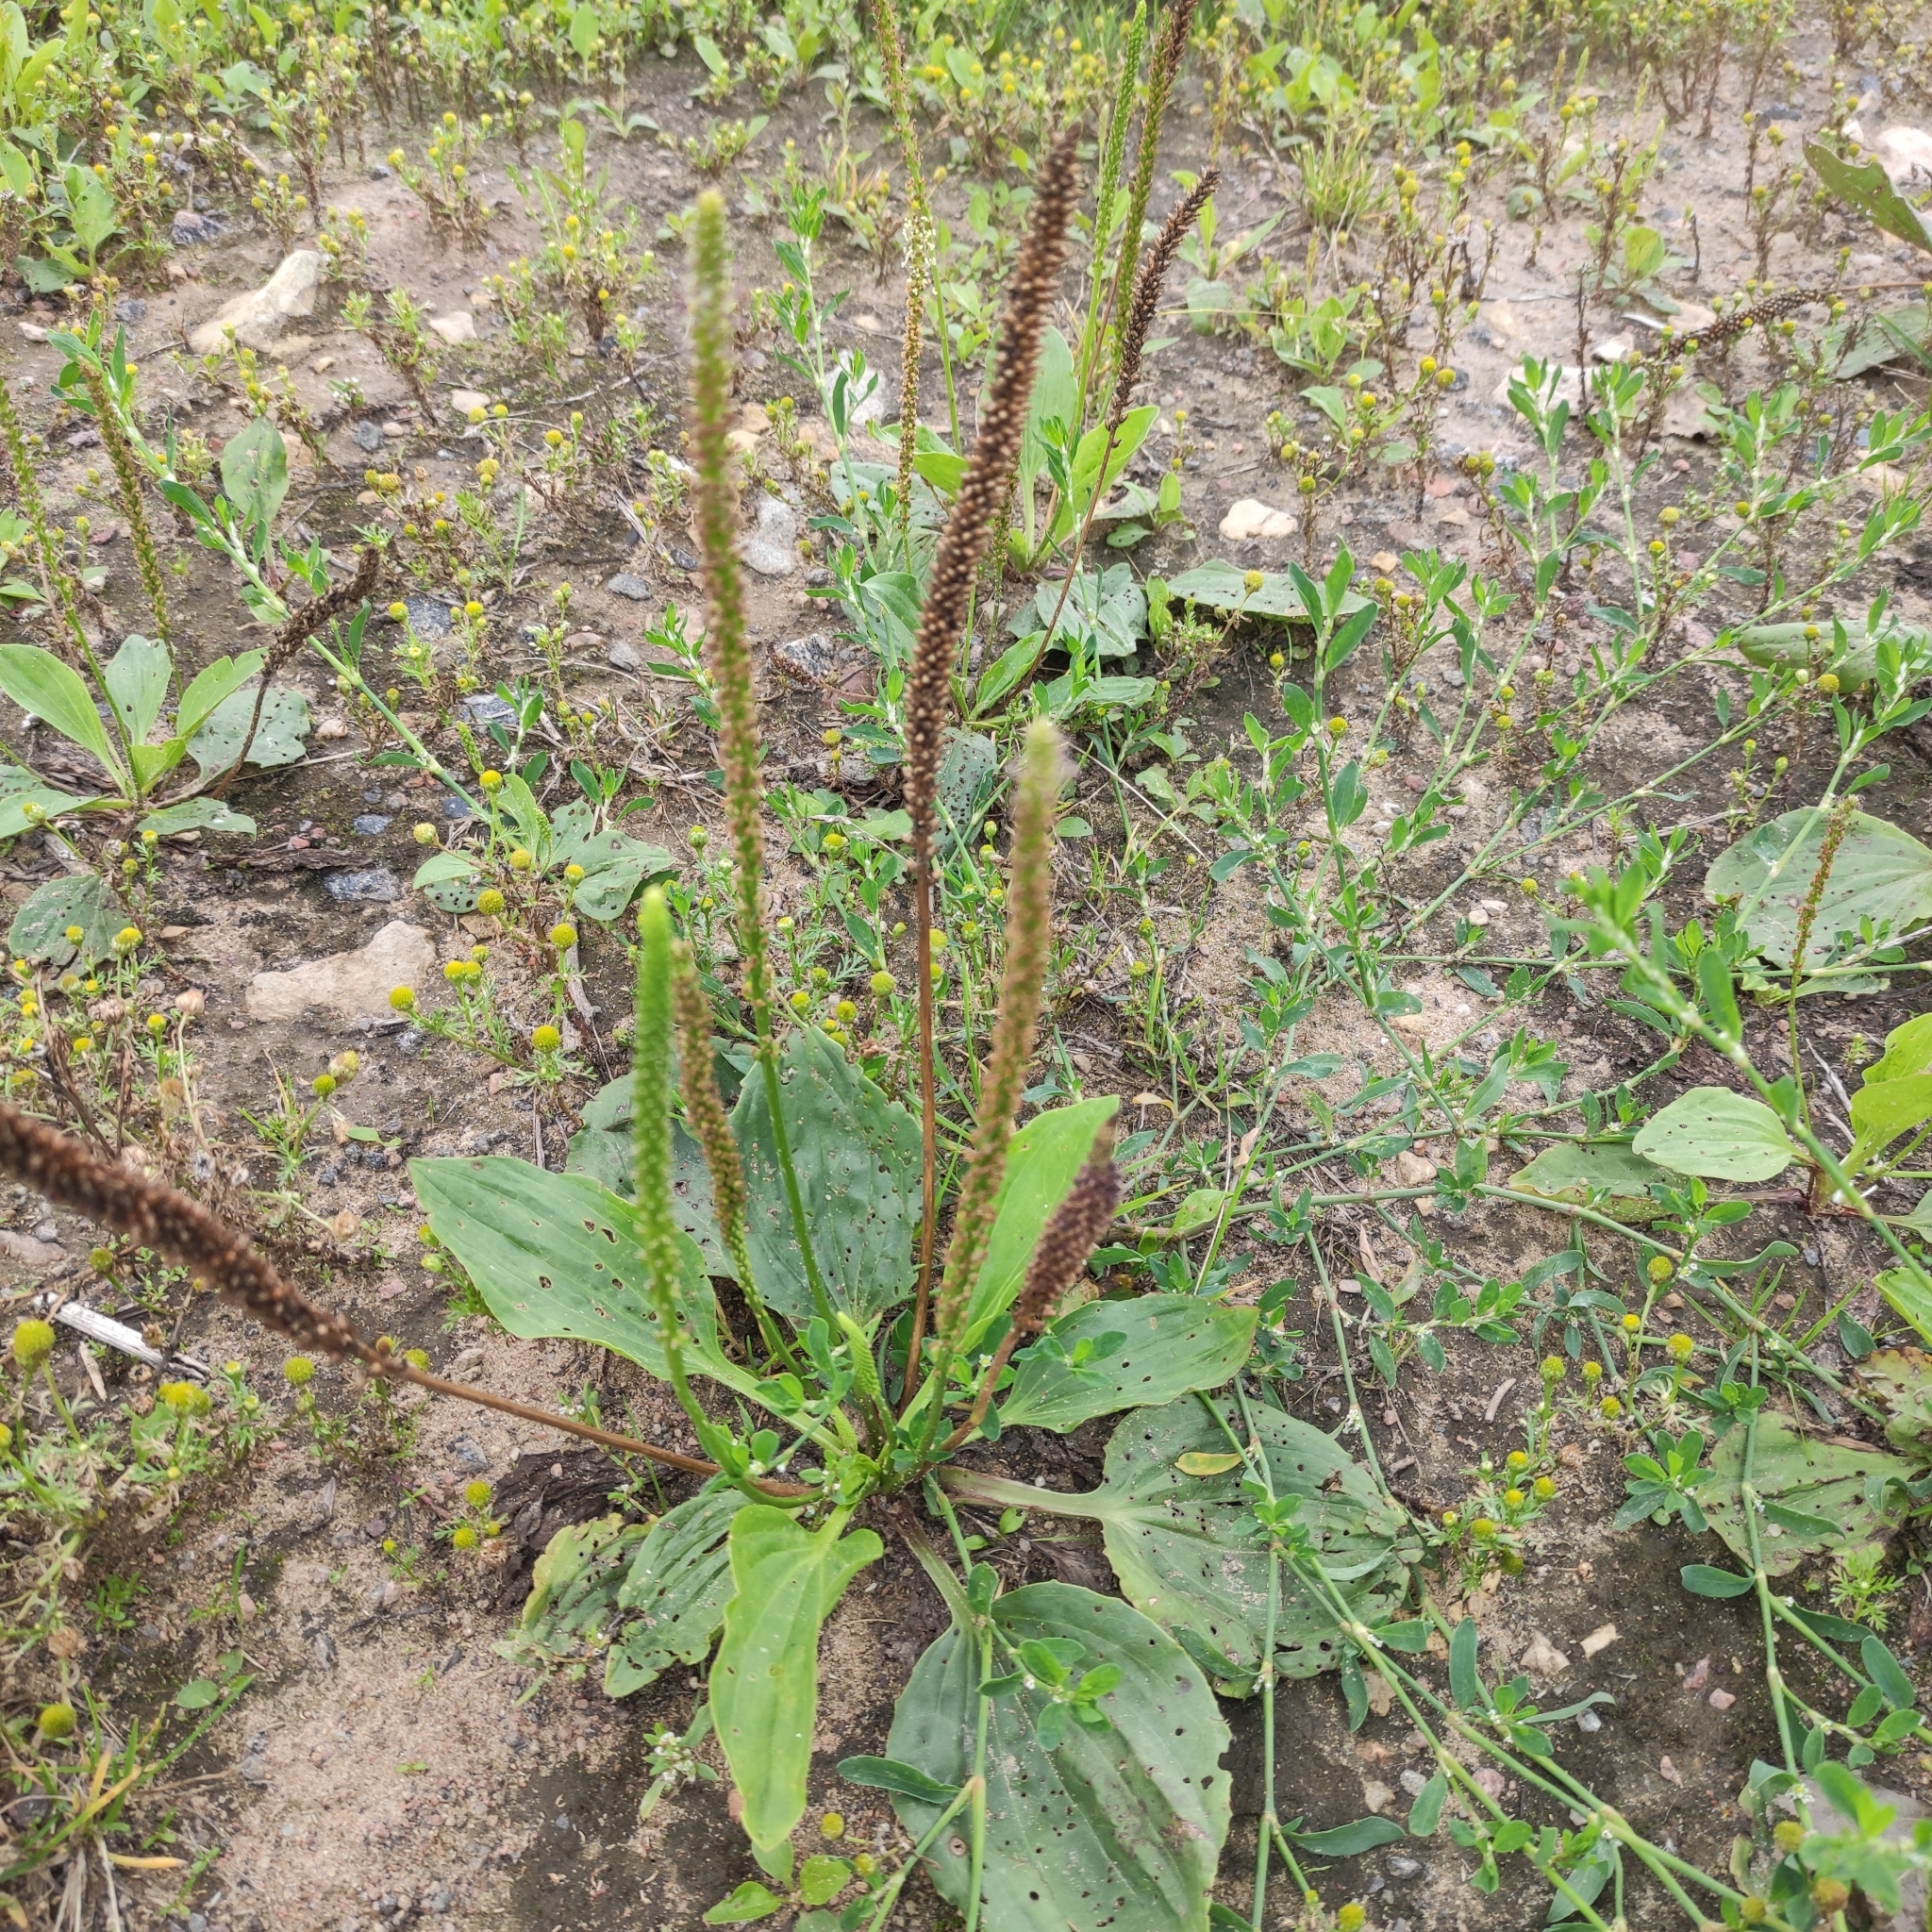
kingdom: Plantae
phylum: Tracheophyta
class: Magnoliopsida
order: Lamiales
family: Plantaginaceae
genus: Plantago
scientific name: Plantago major
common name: Common plantain
